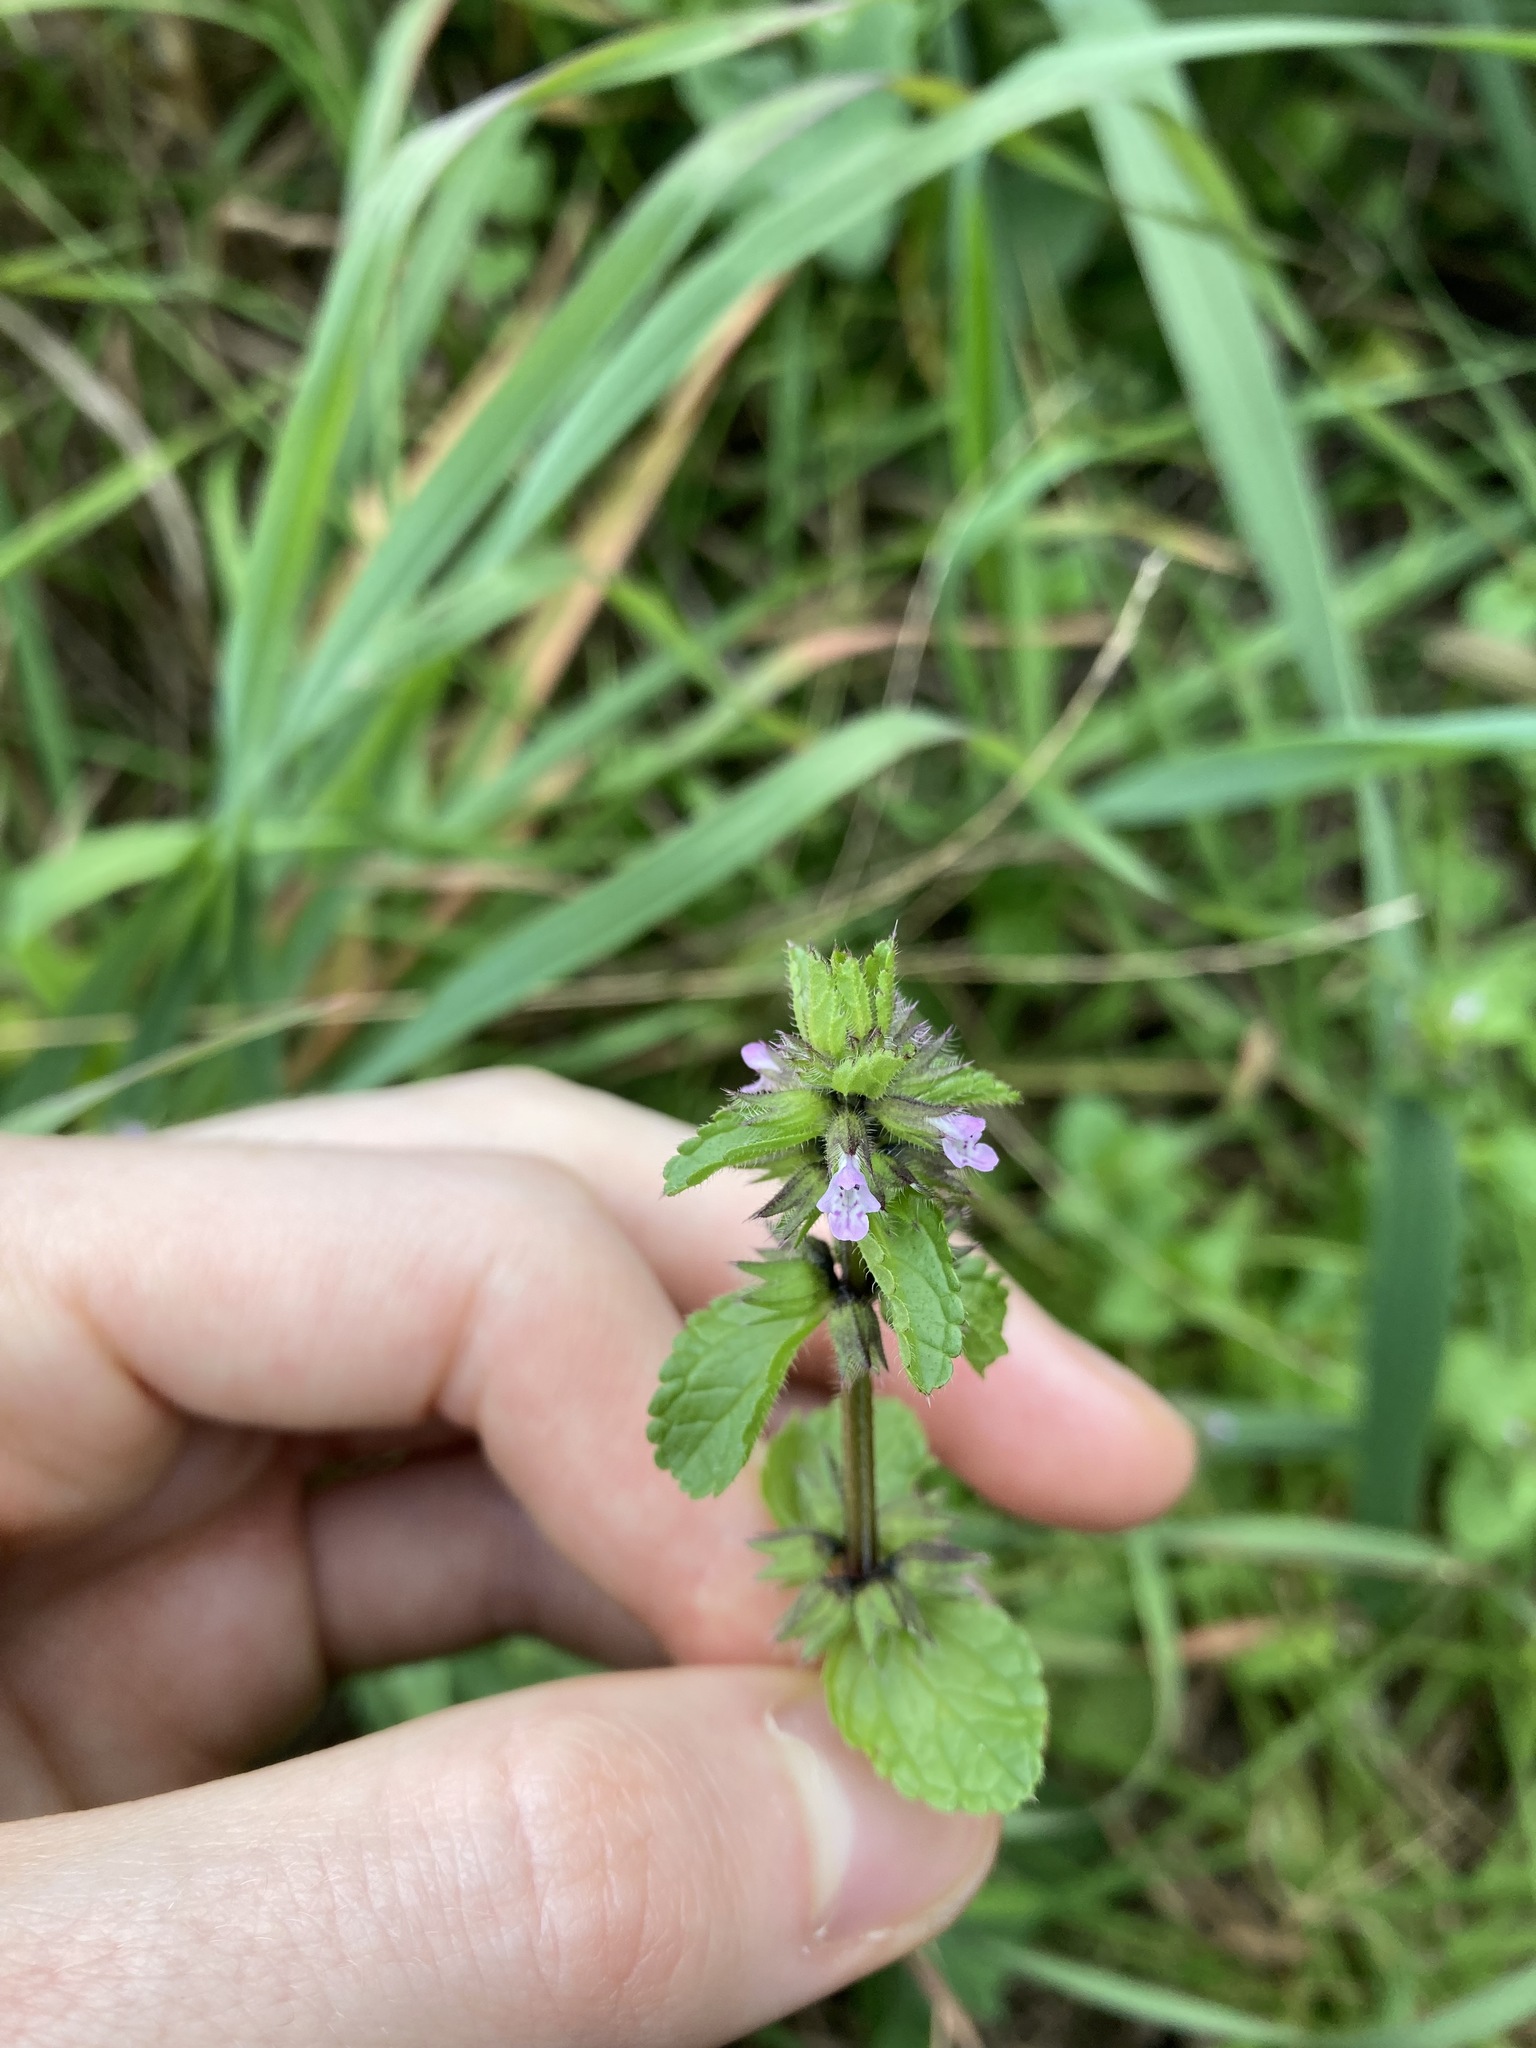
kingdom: Plantae
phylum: Tracheophyta
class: Magnoliopsida
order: Lamiales
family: Lamiaceae
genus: Stachys
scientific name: Stachys arvensis
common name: Field woundwort
